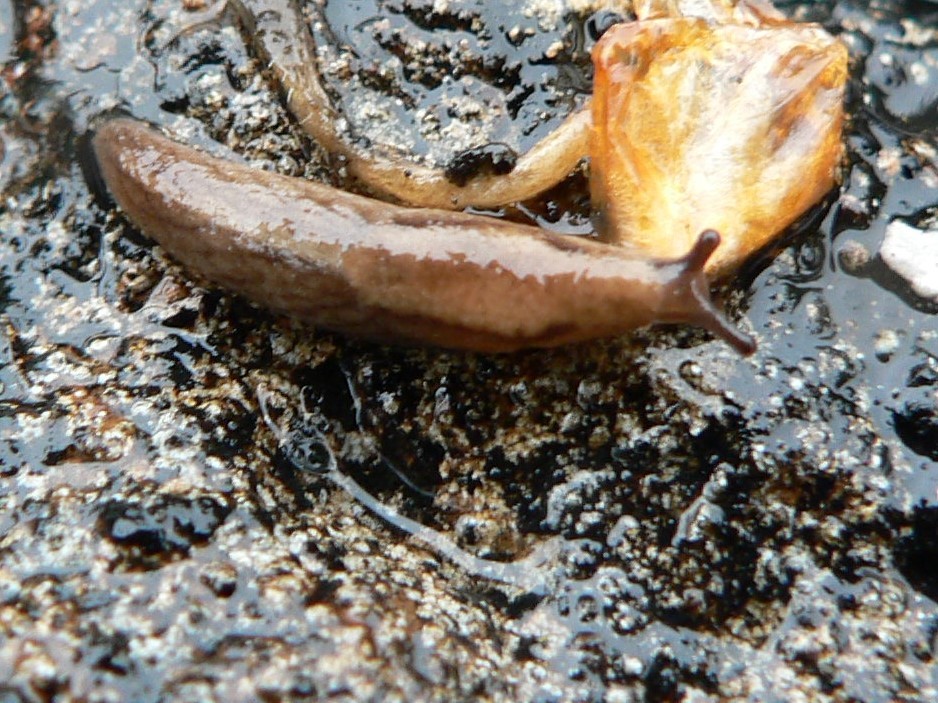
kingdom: Animalia
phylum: Mollusca
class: Gastropoda
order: Stylommatophora
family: Ariolimacidae
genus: Prophysaon
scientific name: Prophysaon andersonii
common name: Reticulate taildropper
